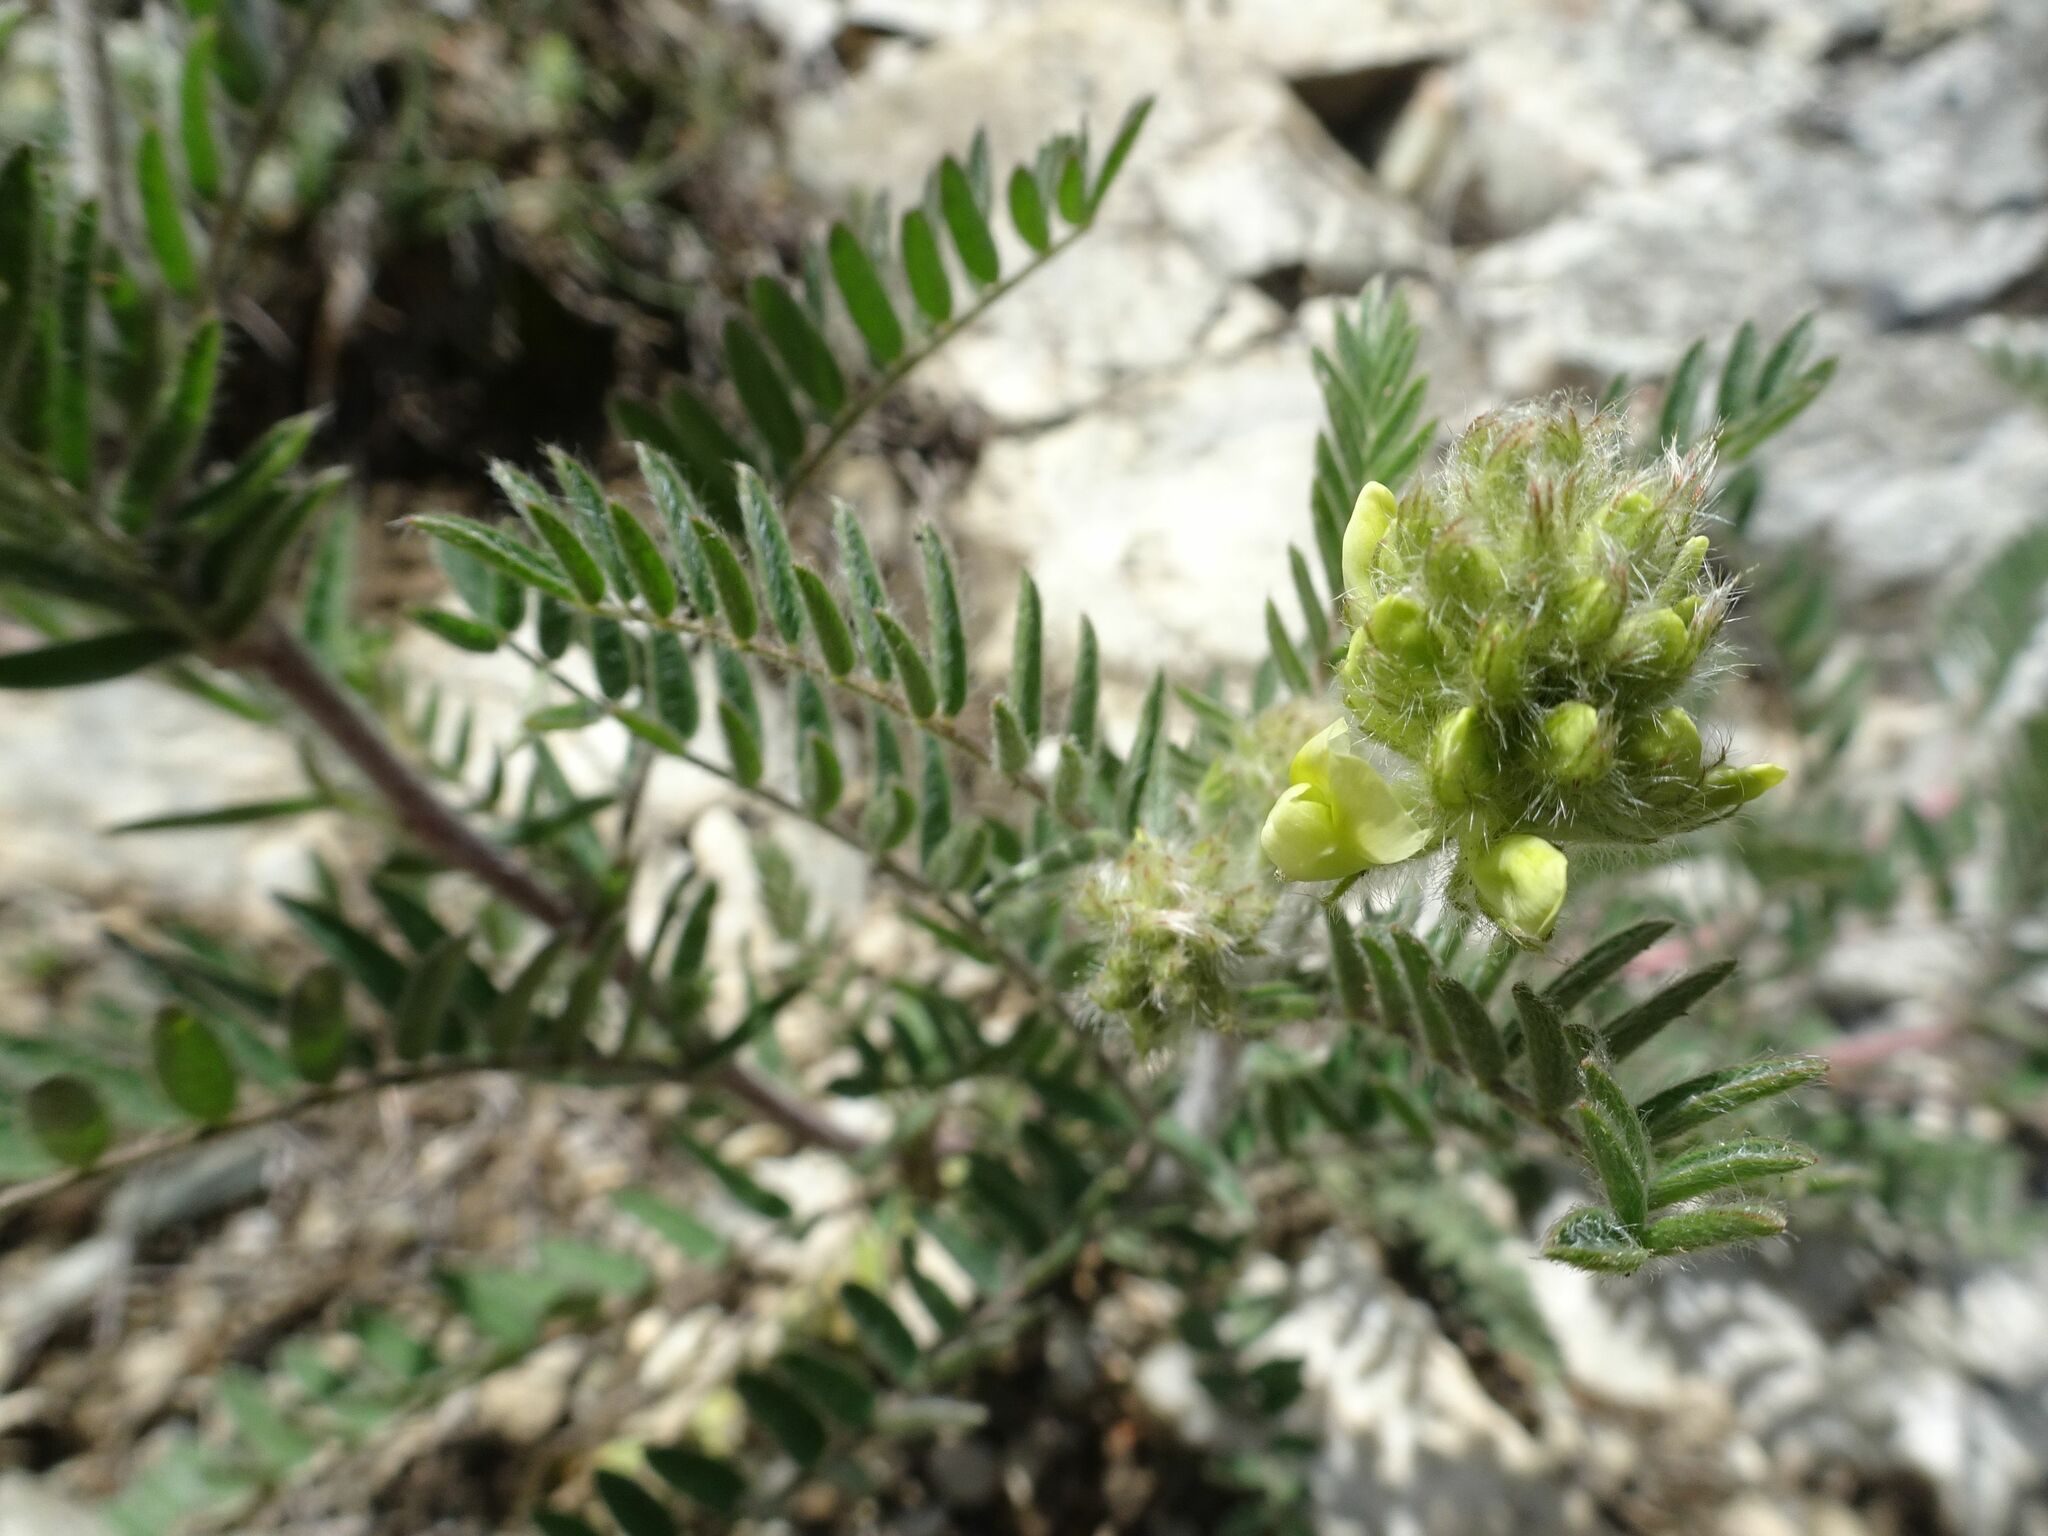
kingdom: Plantae
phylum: Tracheophyta
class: Magnoliopsida
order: Fabales
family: Fabaceae
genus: Oxytropis
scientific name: Oxytropis pilosa
